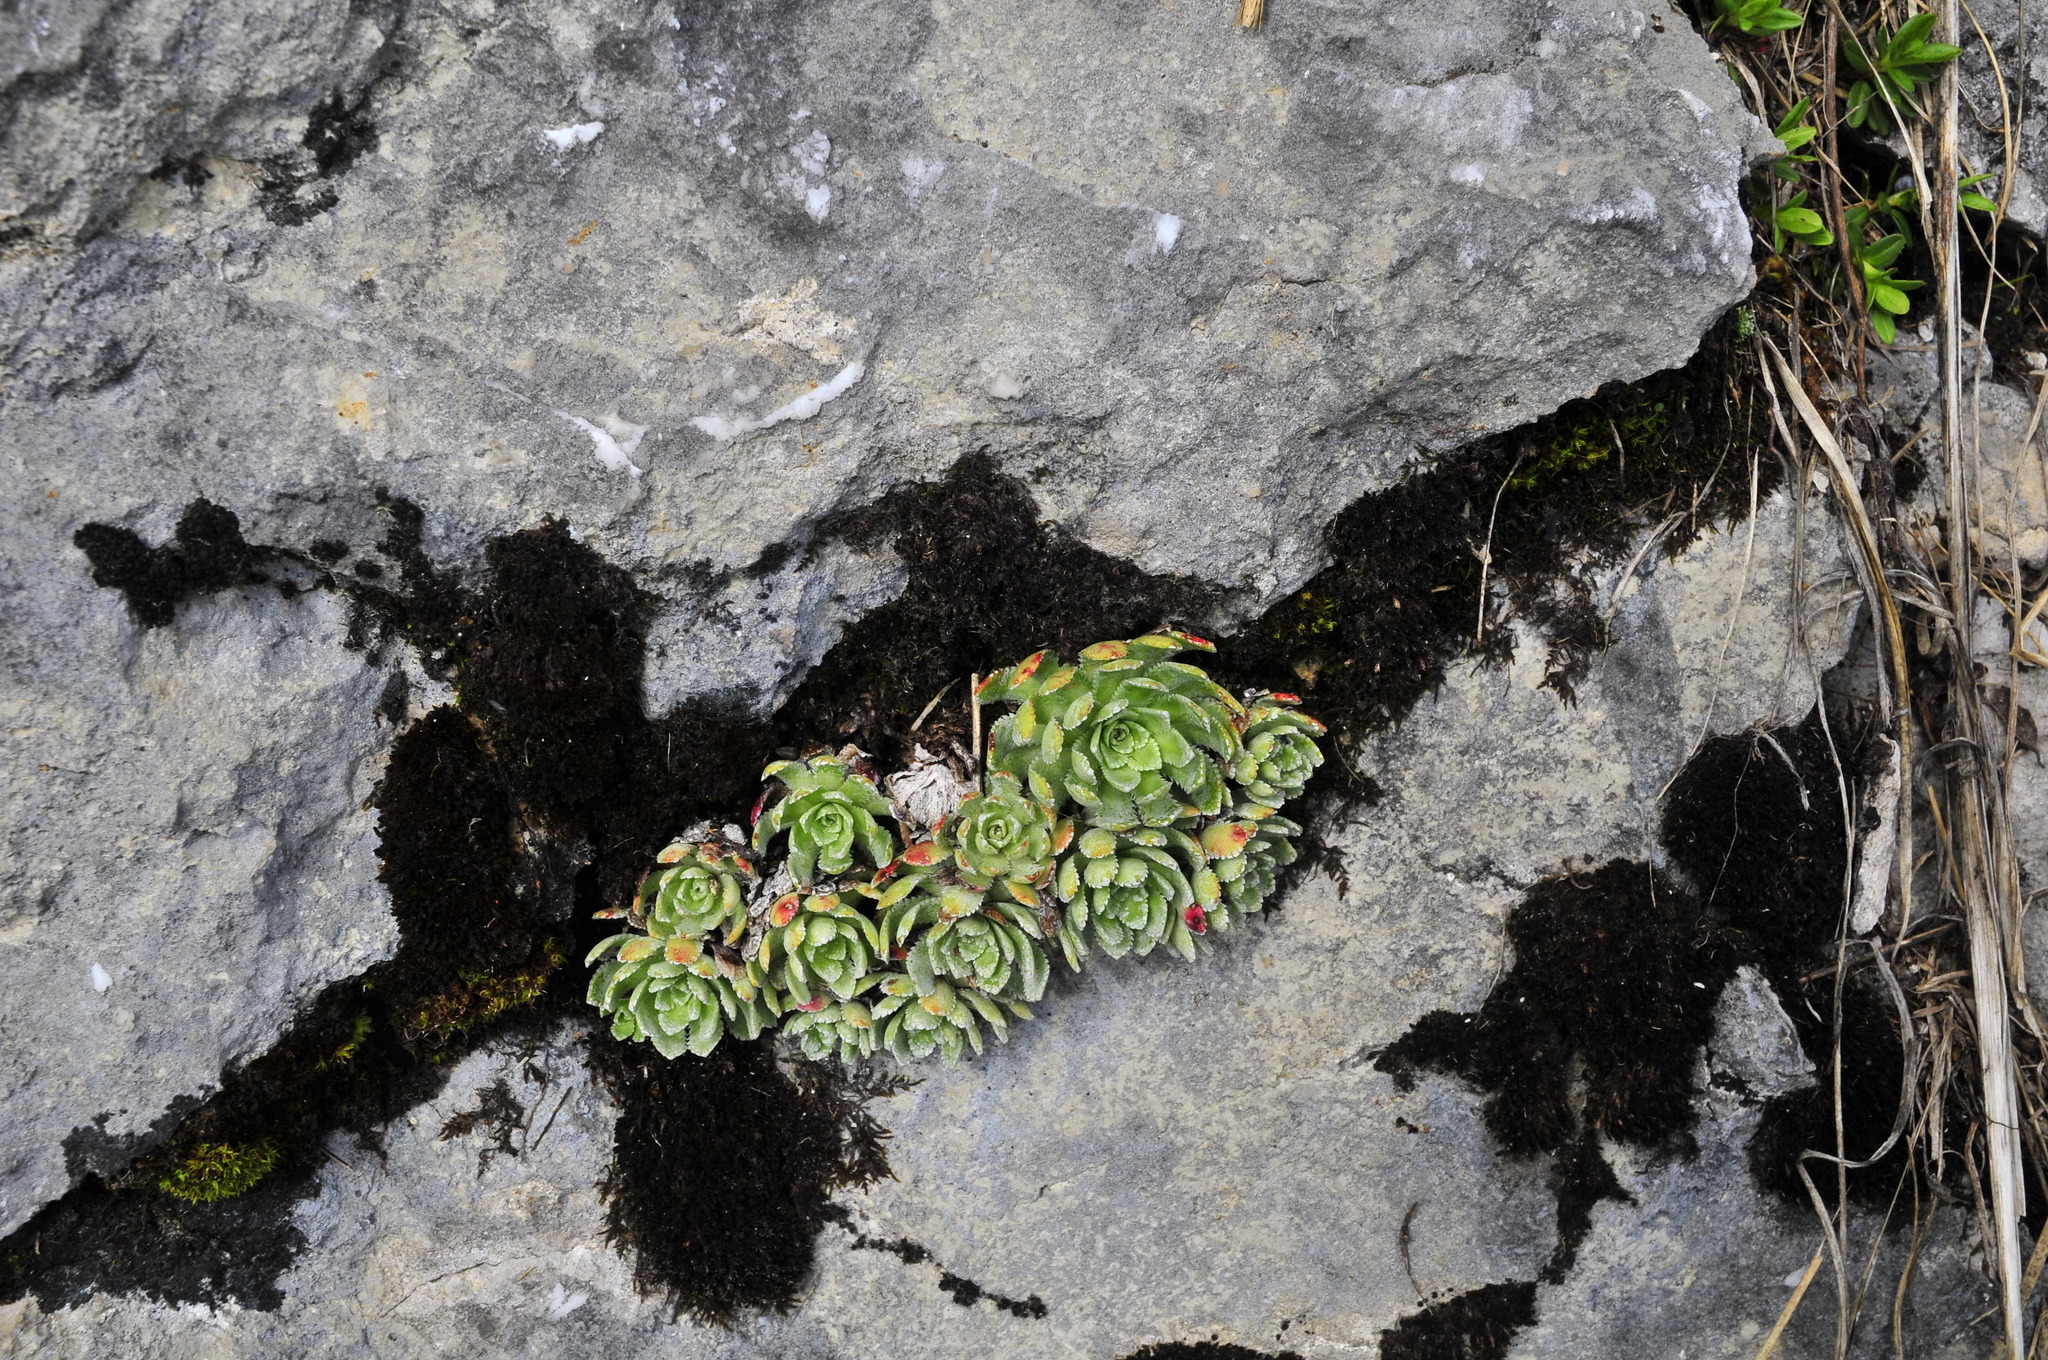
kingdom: Plantae
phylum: Tracheophyta
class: Magnoliopsida
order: Saxifragales
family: Saxifragaceae
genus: Saxifraga
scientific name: Saxifraga paniculata
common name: Livelong saxifrage
